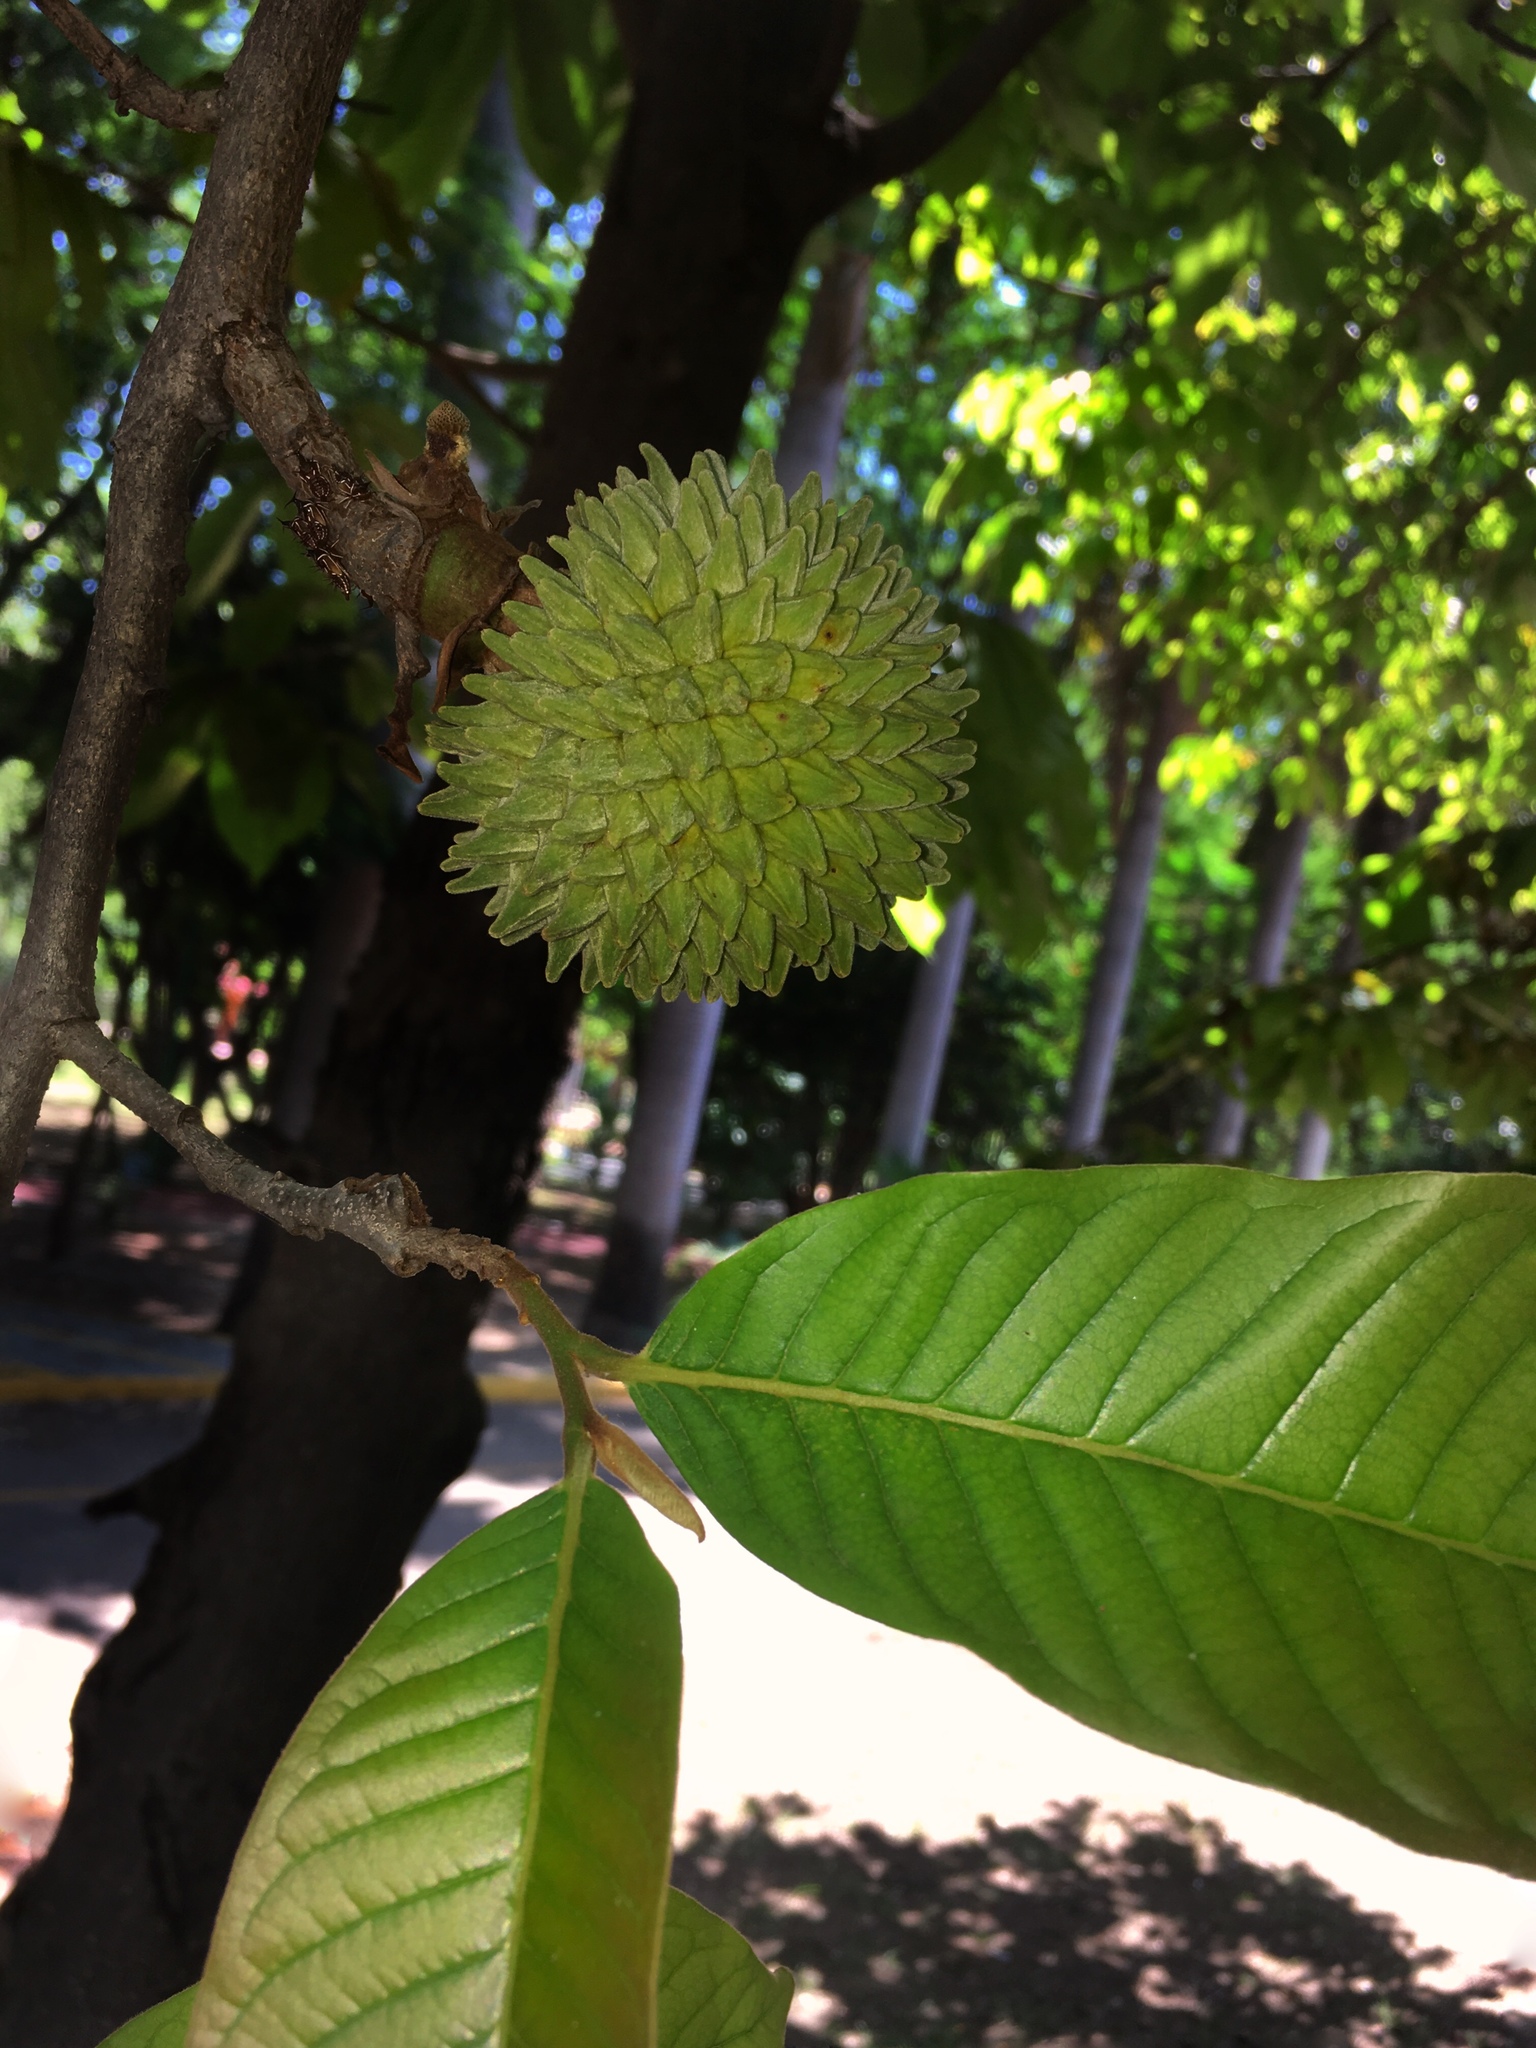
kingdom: Plantae
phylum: Tracheophyta
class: Magnoliopsida
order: Magnoliales
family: Annonaceae
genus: Annona
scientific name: Annona purpurea
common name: Negrohead
